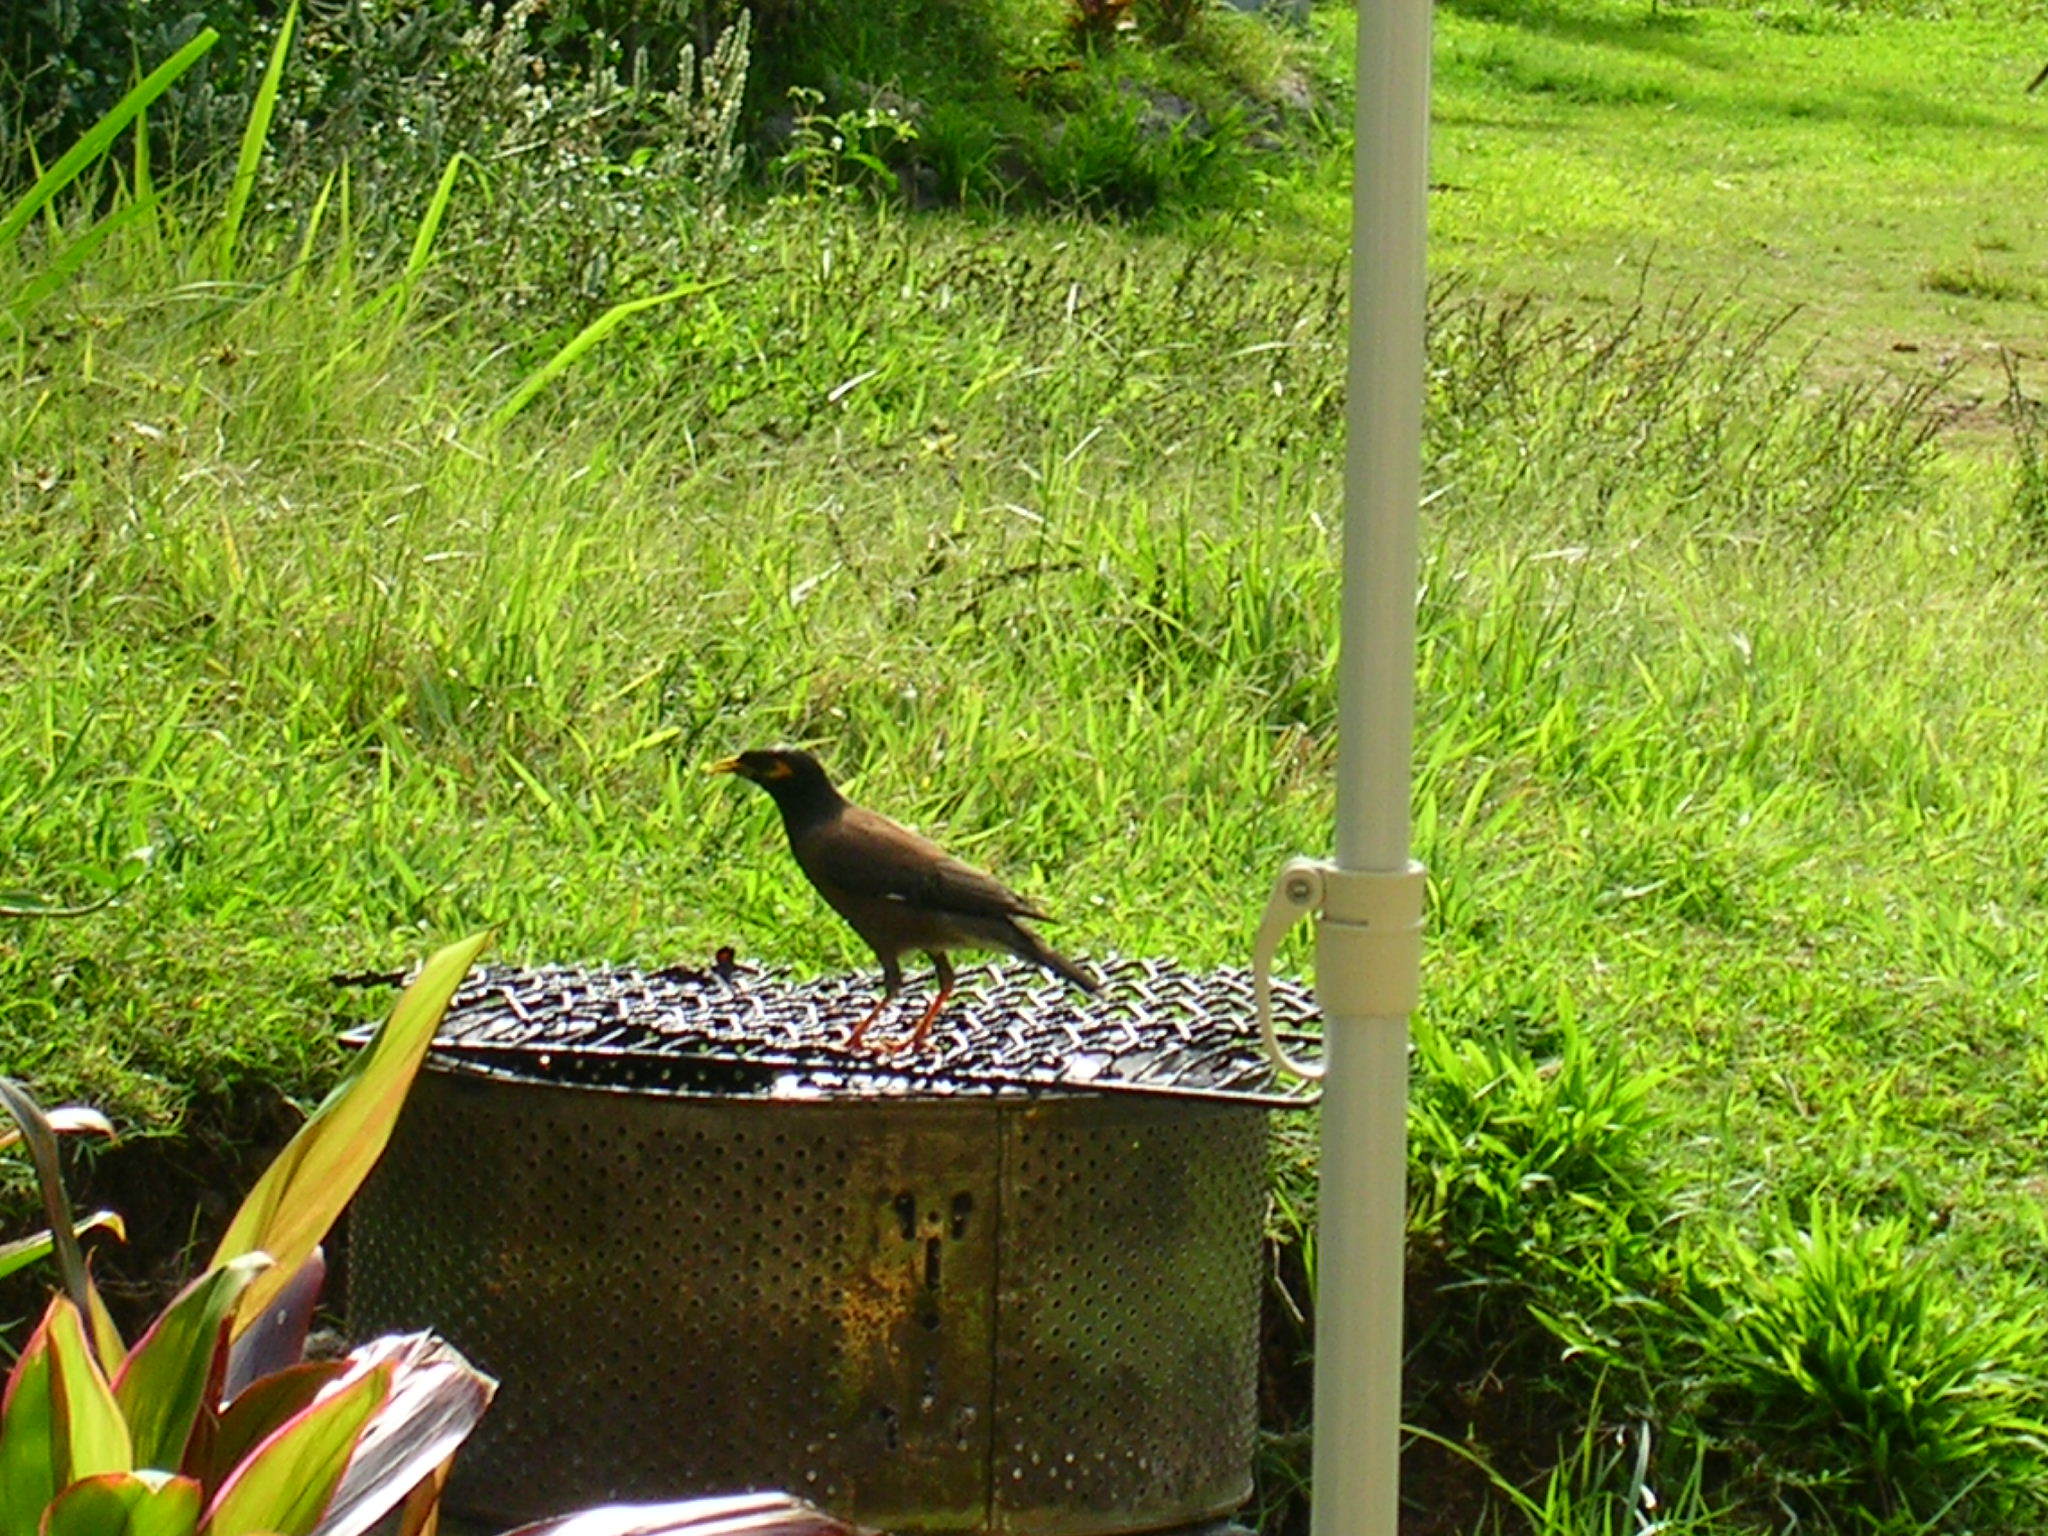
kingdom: Animalia
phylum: Chordata
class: Aves
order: Passeriformes
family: Sturnidae
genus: Acridotheres
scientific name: Acridotheres tristis
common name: Common myna
